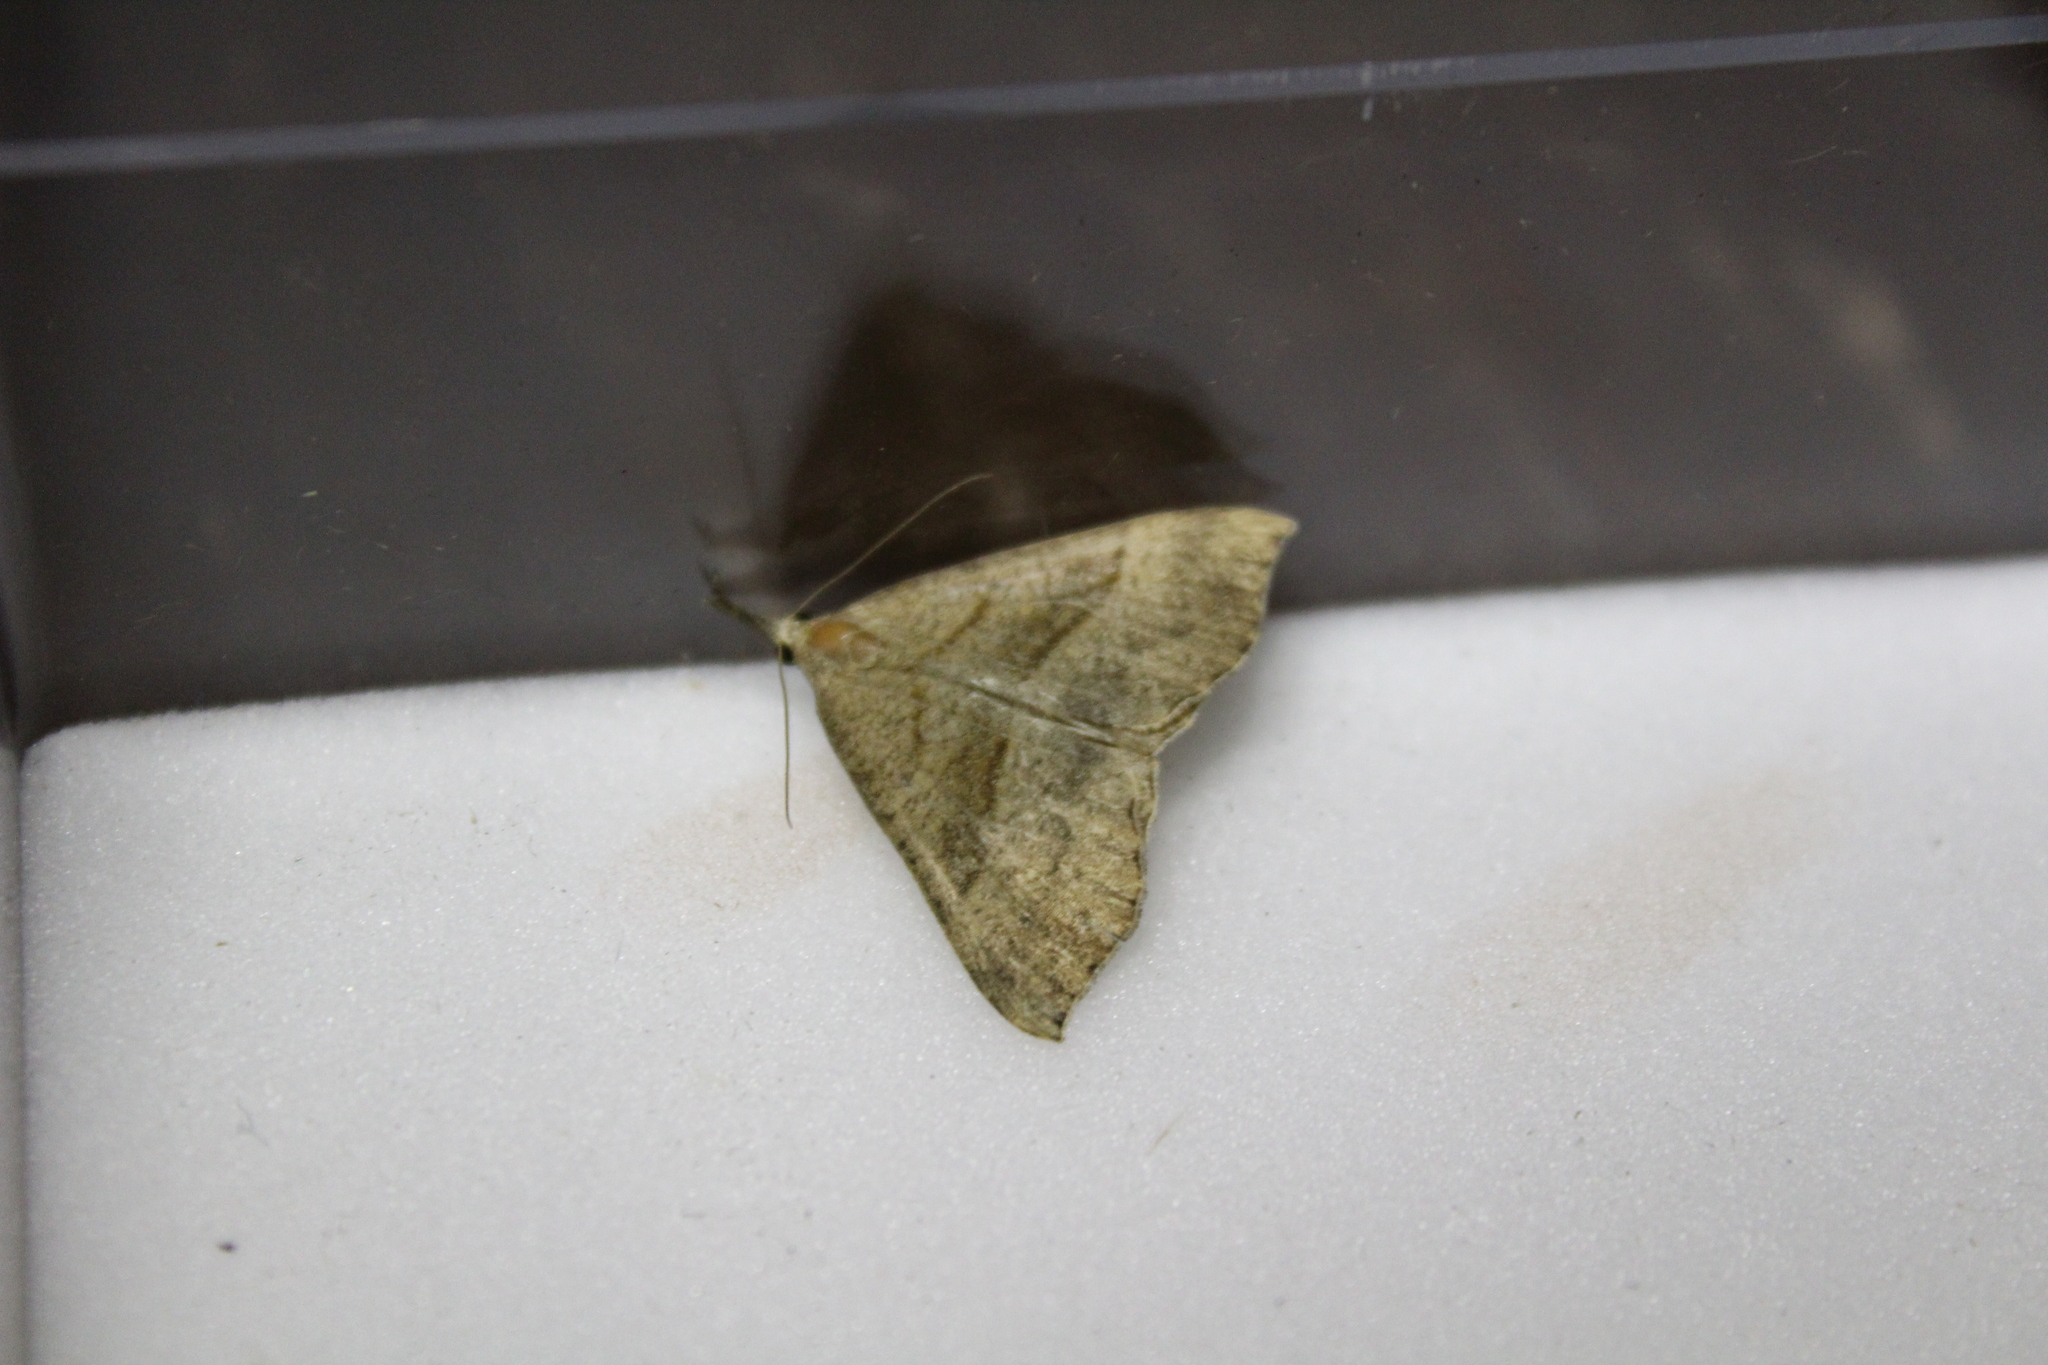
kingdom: Animalia
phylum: Arthropoda
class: Insecta
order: Lepidoptera
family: Erebidae
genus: Hypena
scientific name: Hypena proboscidalis
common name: Snout
